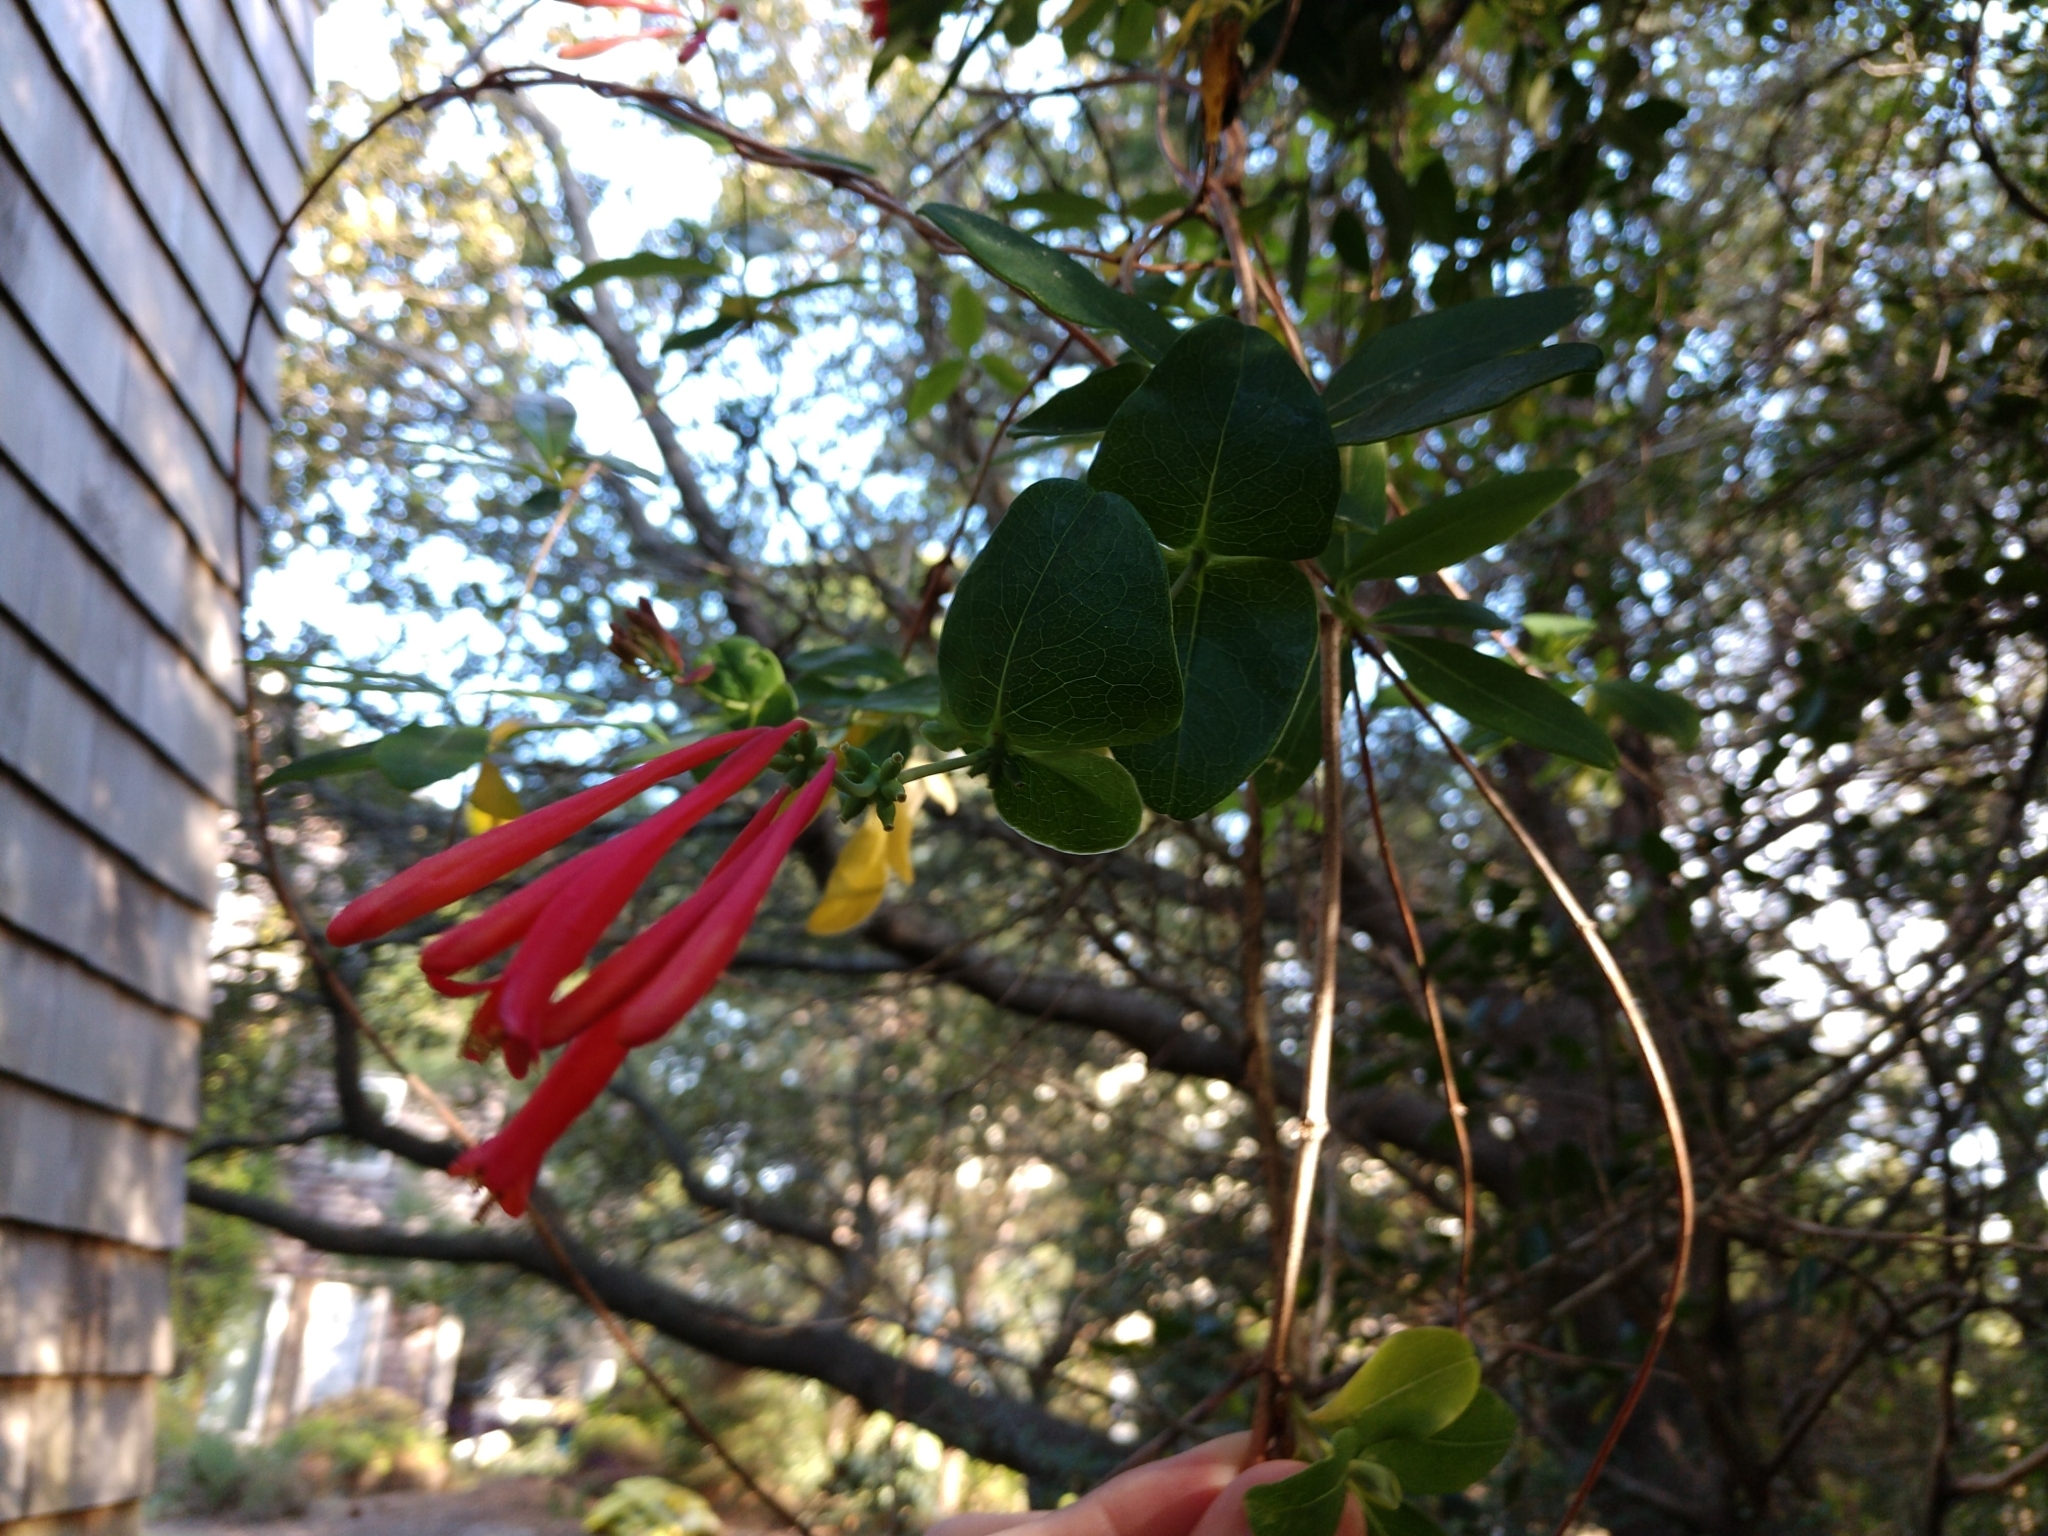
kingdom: Plantae
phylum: Tracheophyta
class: Magnoliopsida
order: Dipsacales
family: Caprifoliaceae
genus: Lonicera
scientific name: Lonicera sempervirens
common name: Coral honeysuckle
